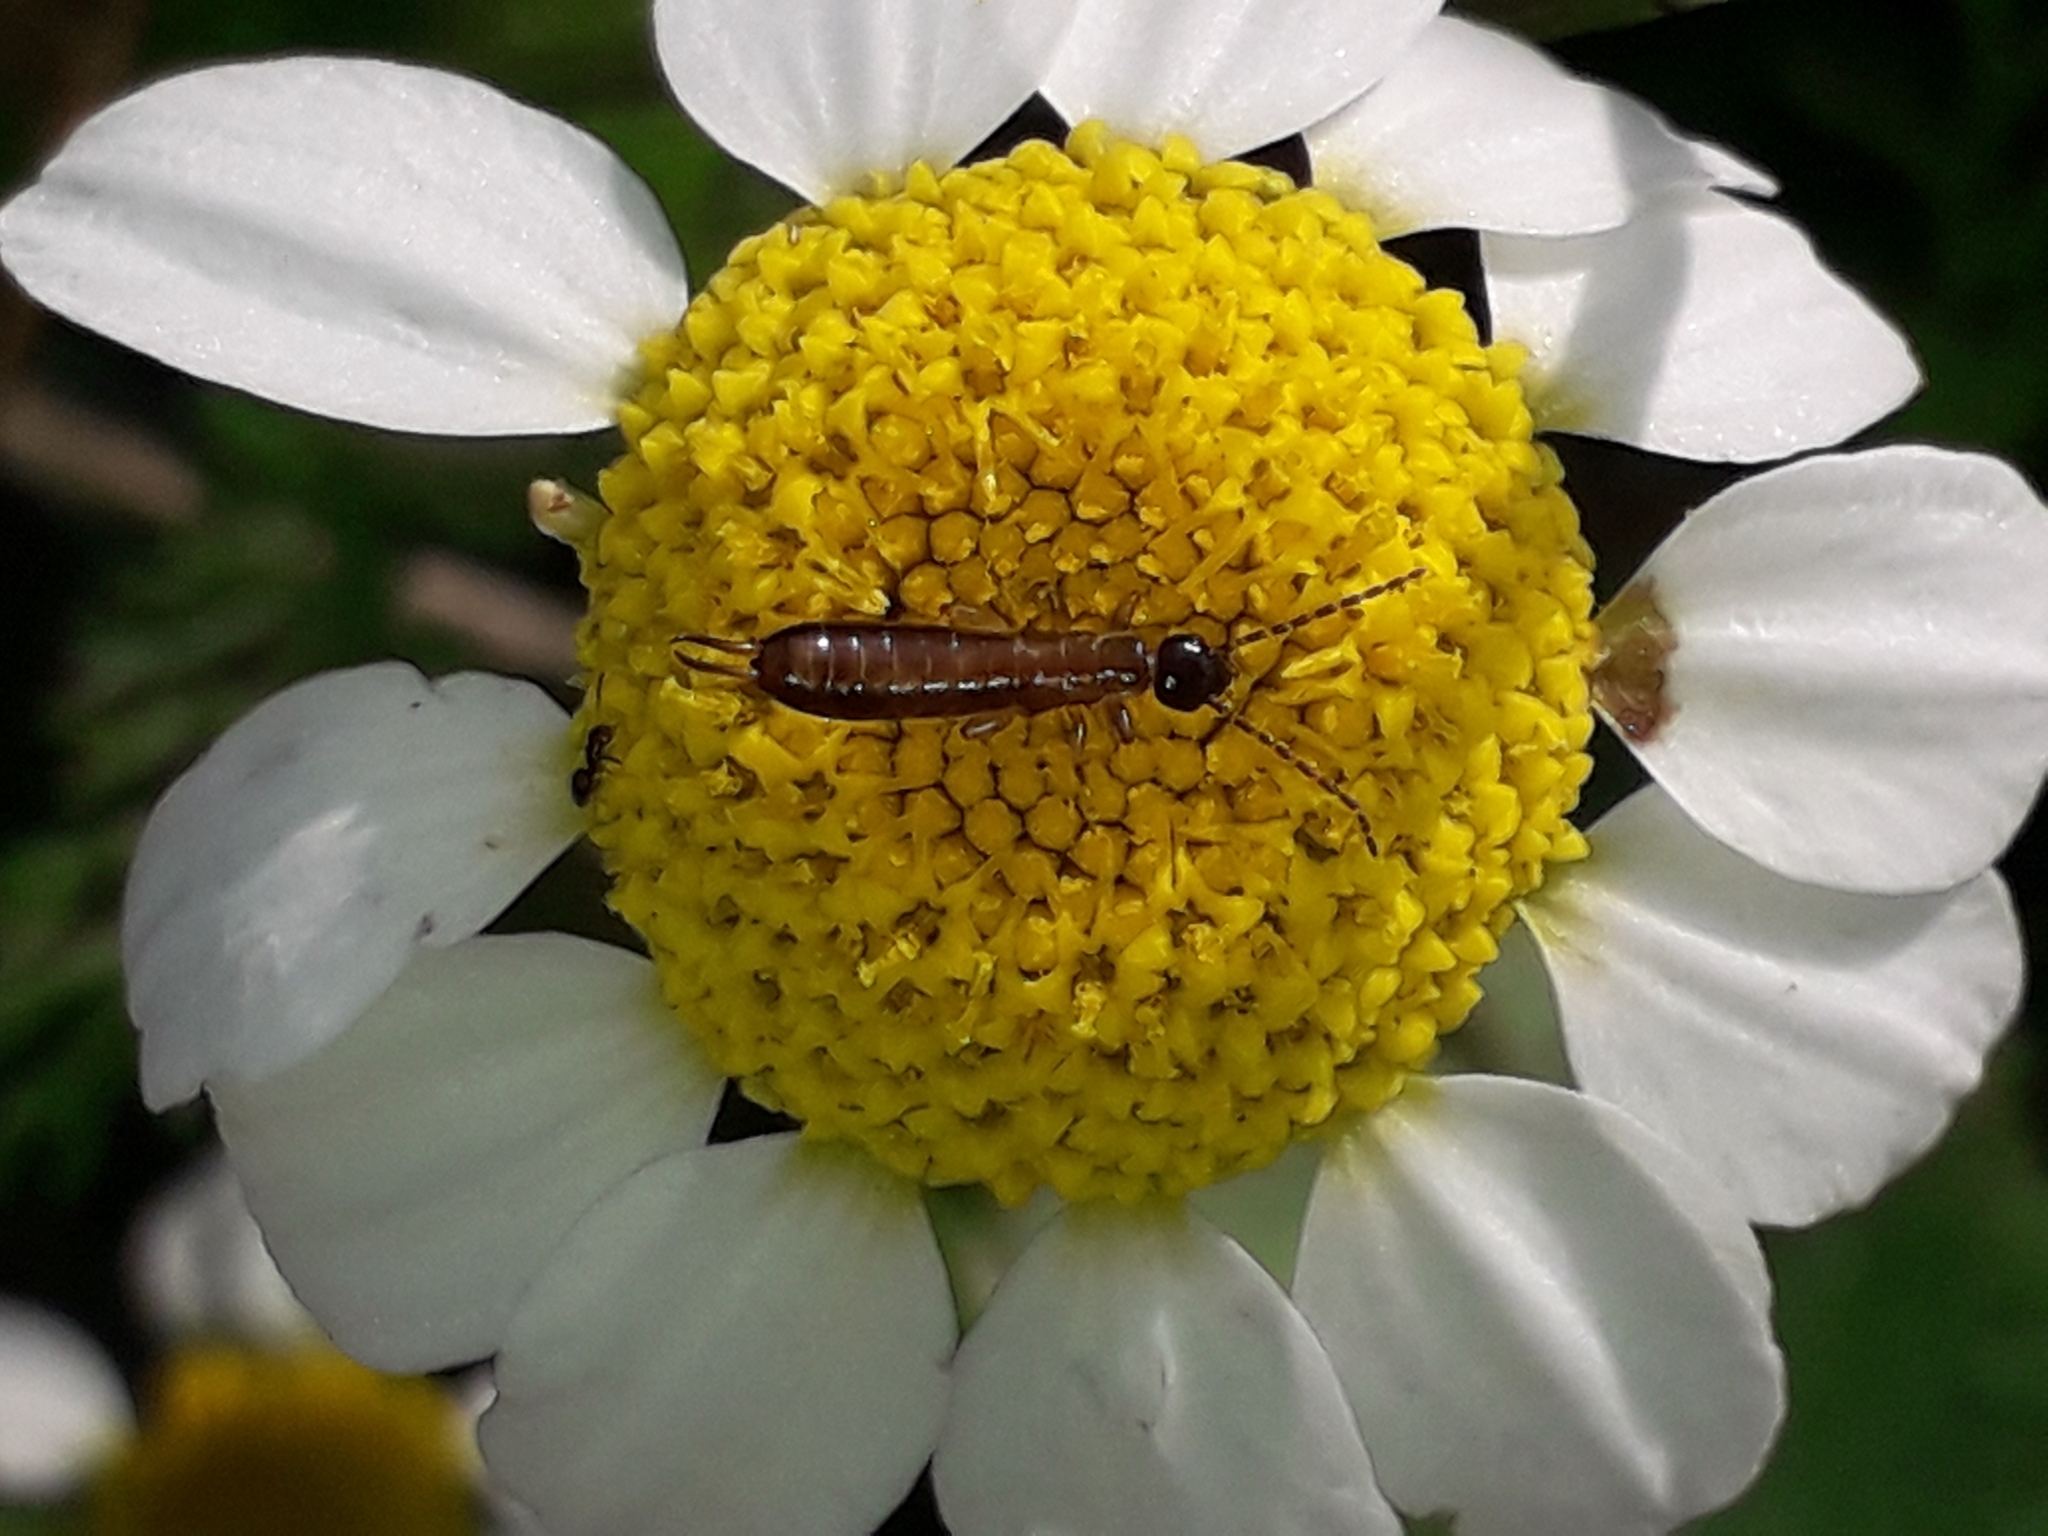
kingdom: Animalia
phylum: Arthropoda
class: Insecta
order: Dermaptera
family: Forficulidae
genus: Guanchia
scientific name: Guanchia pubescens
